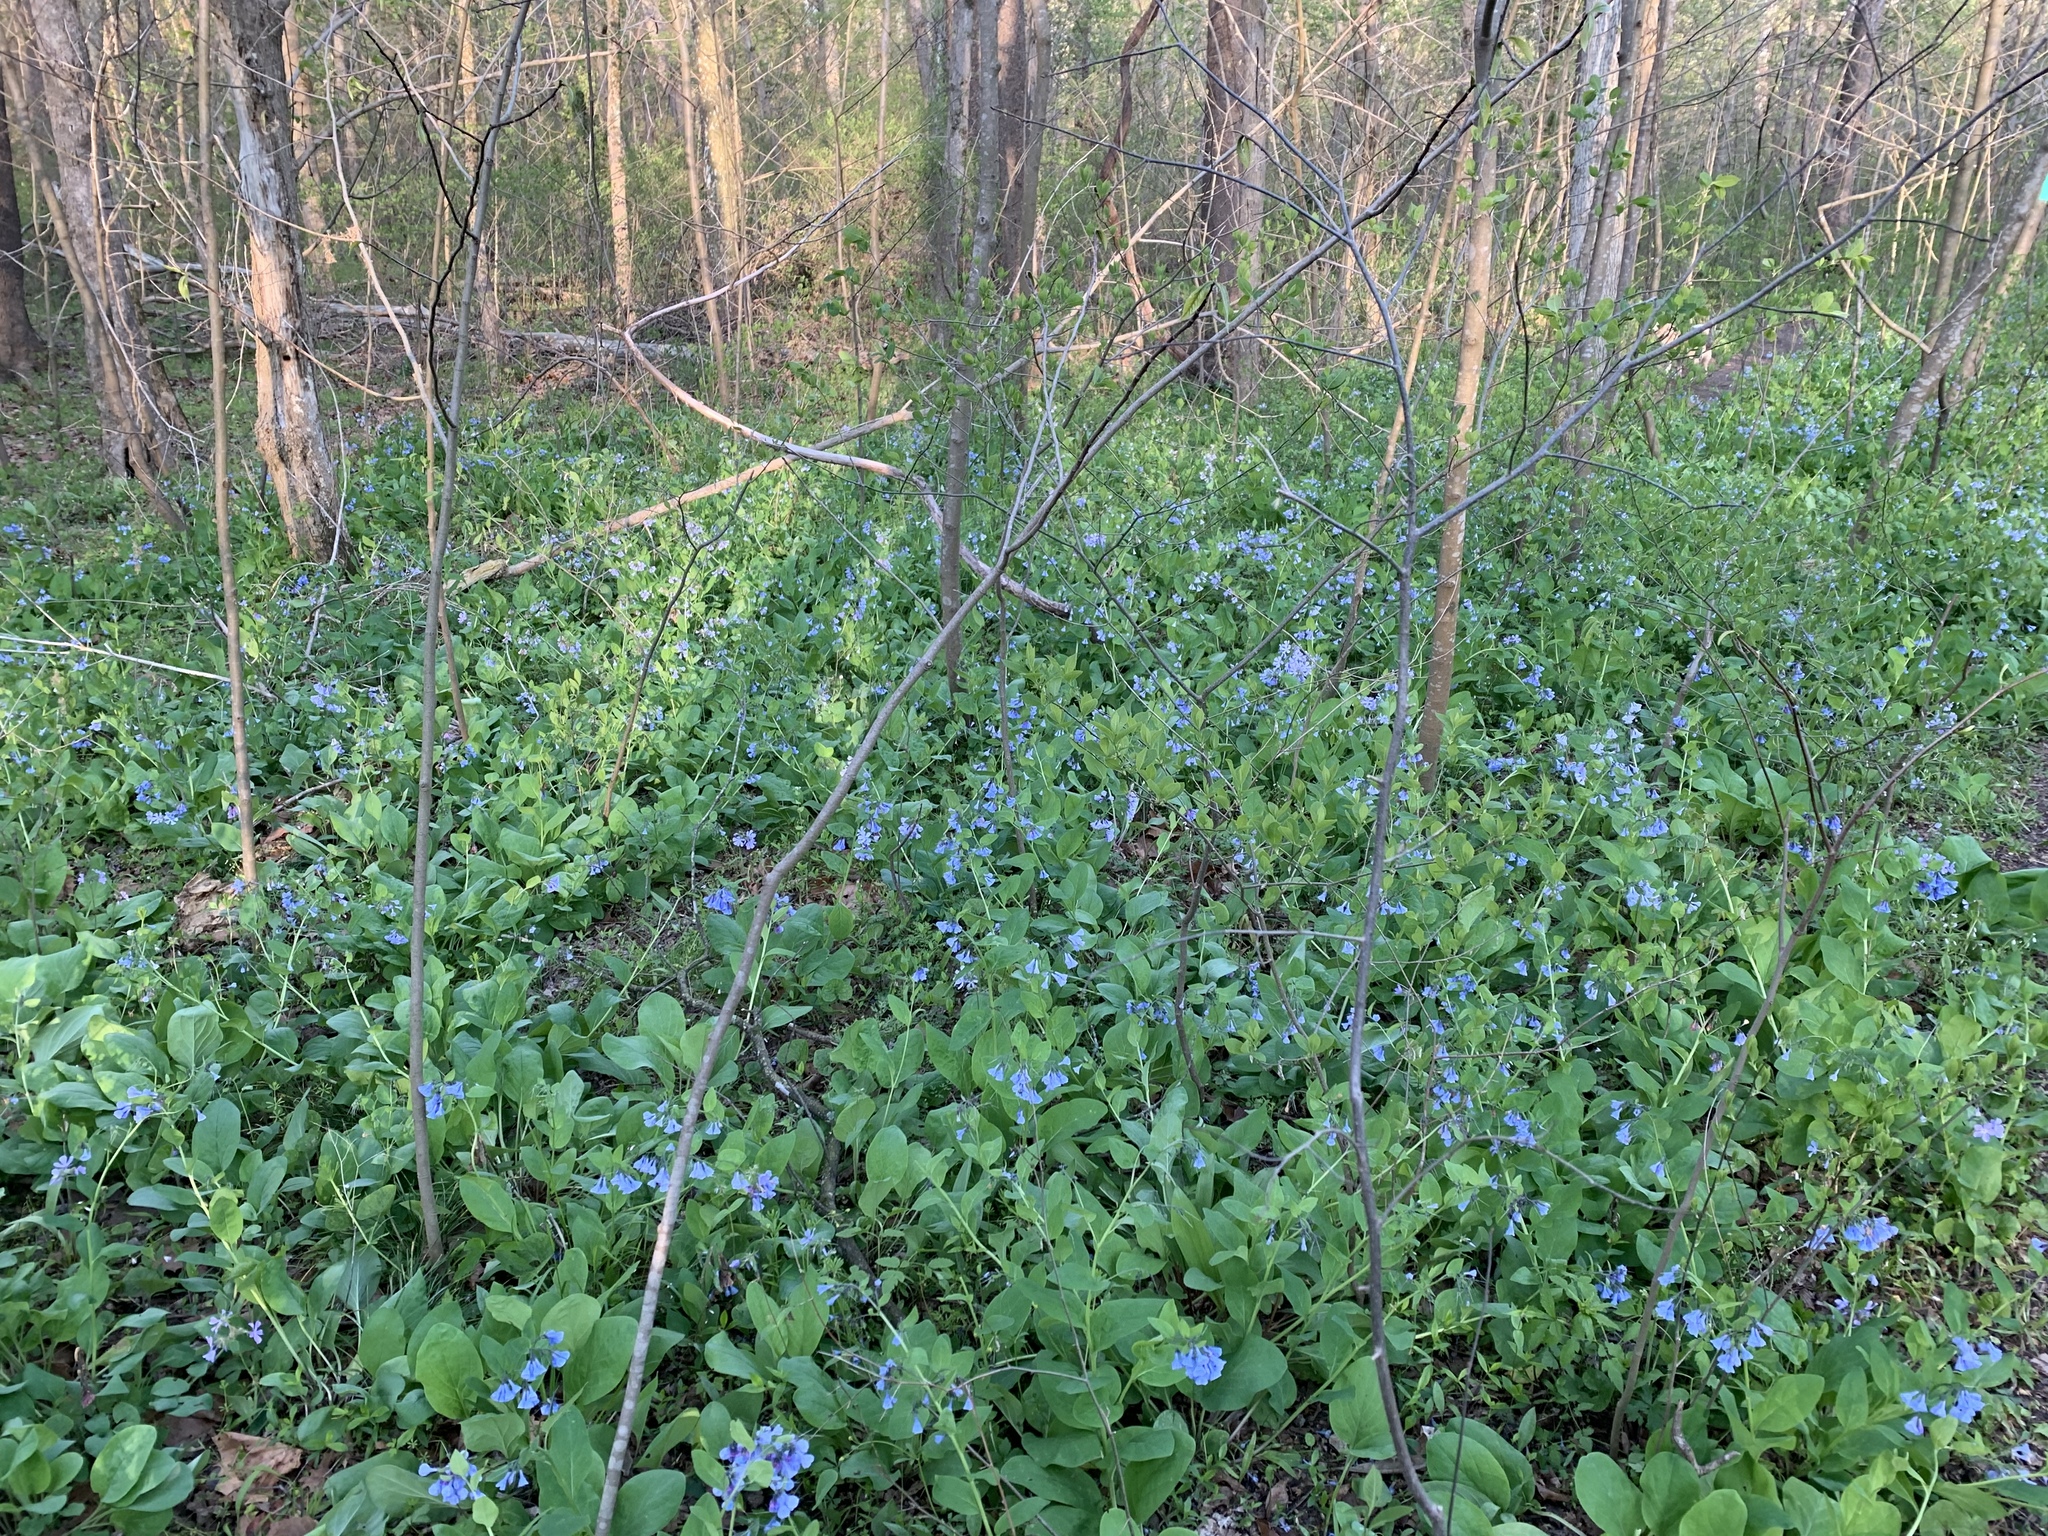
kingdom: Plantae
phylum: Tracheophyta
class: Magnoliopsida
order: Boraginales
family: Boraginaceae
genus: Mertensia
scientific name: Mertensia virginica
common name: Virginia bluebells
